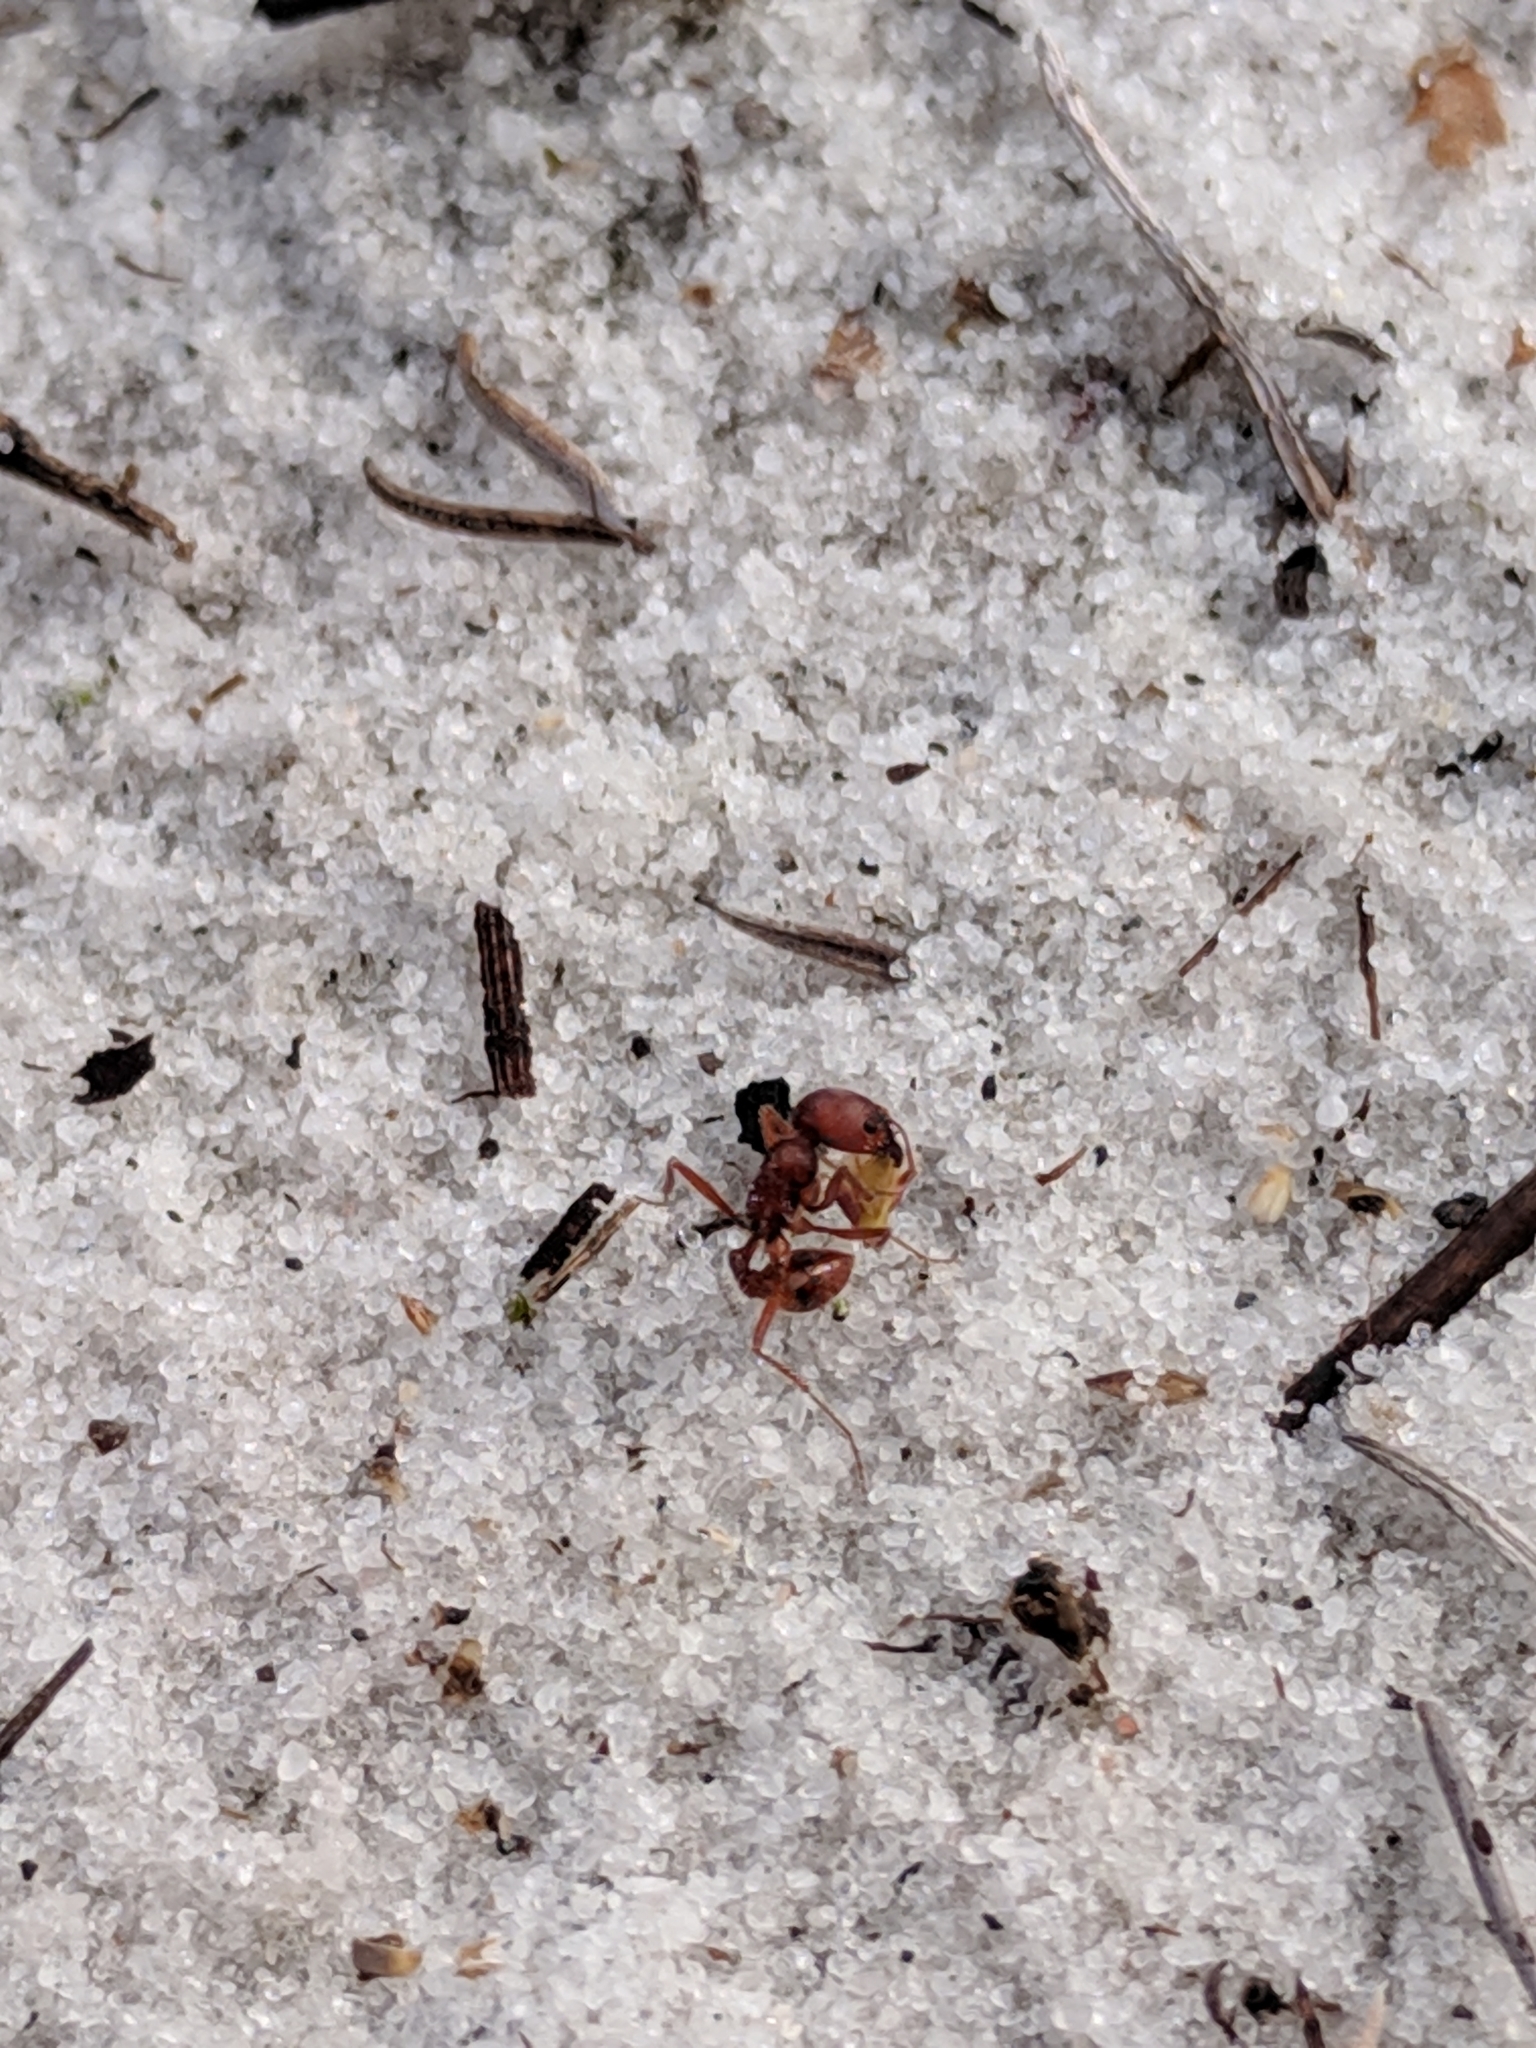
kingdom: Animalia
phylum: Arthropoda
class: Insecta
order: Hymenoptera
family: Formicidae
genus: Pogonomyrmex
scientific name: Pogonomyrmex badius
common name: Florida harvester ant
